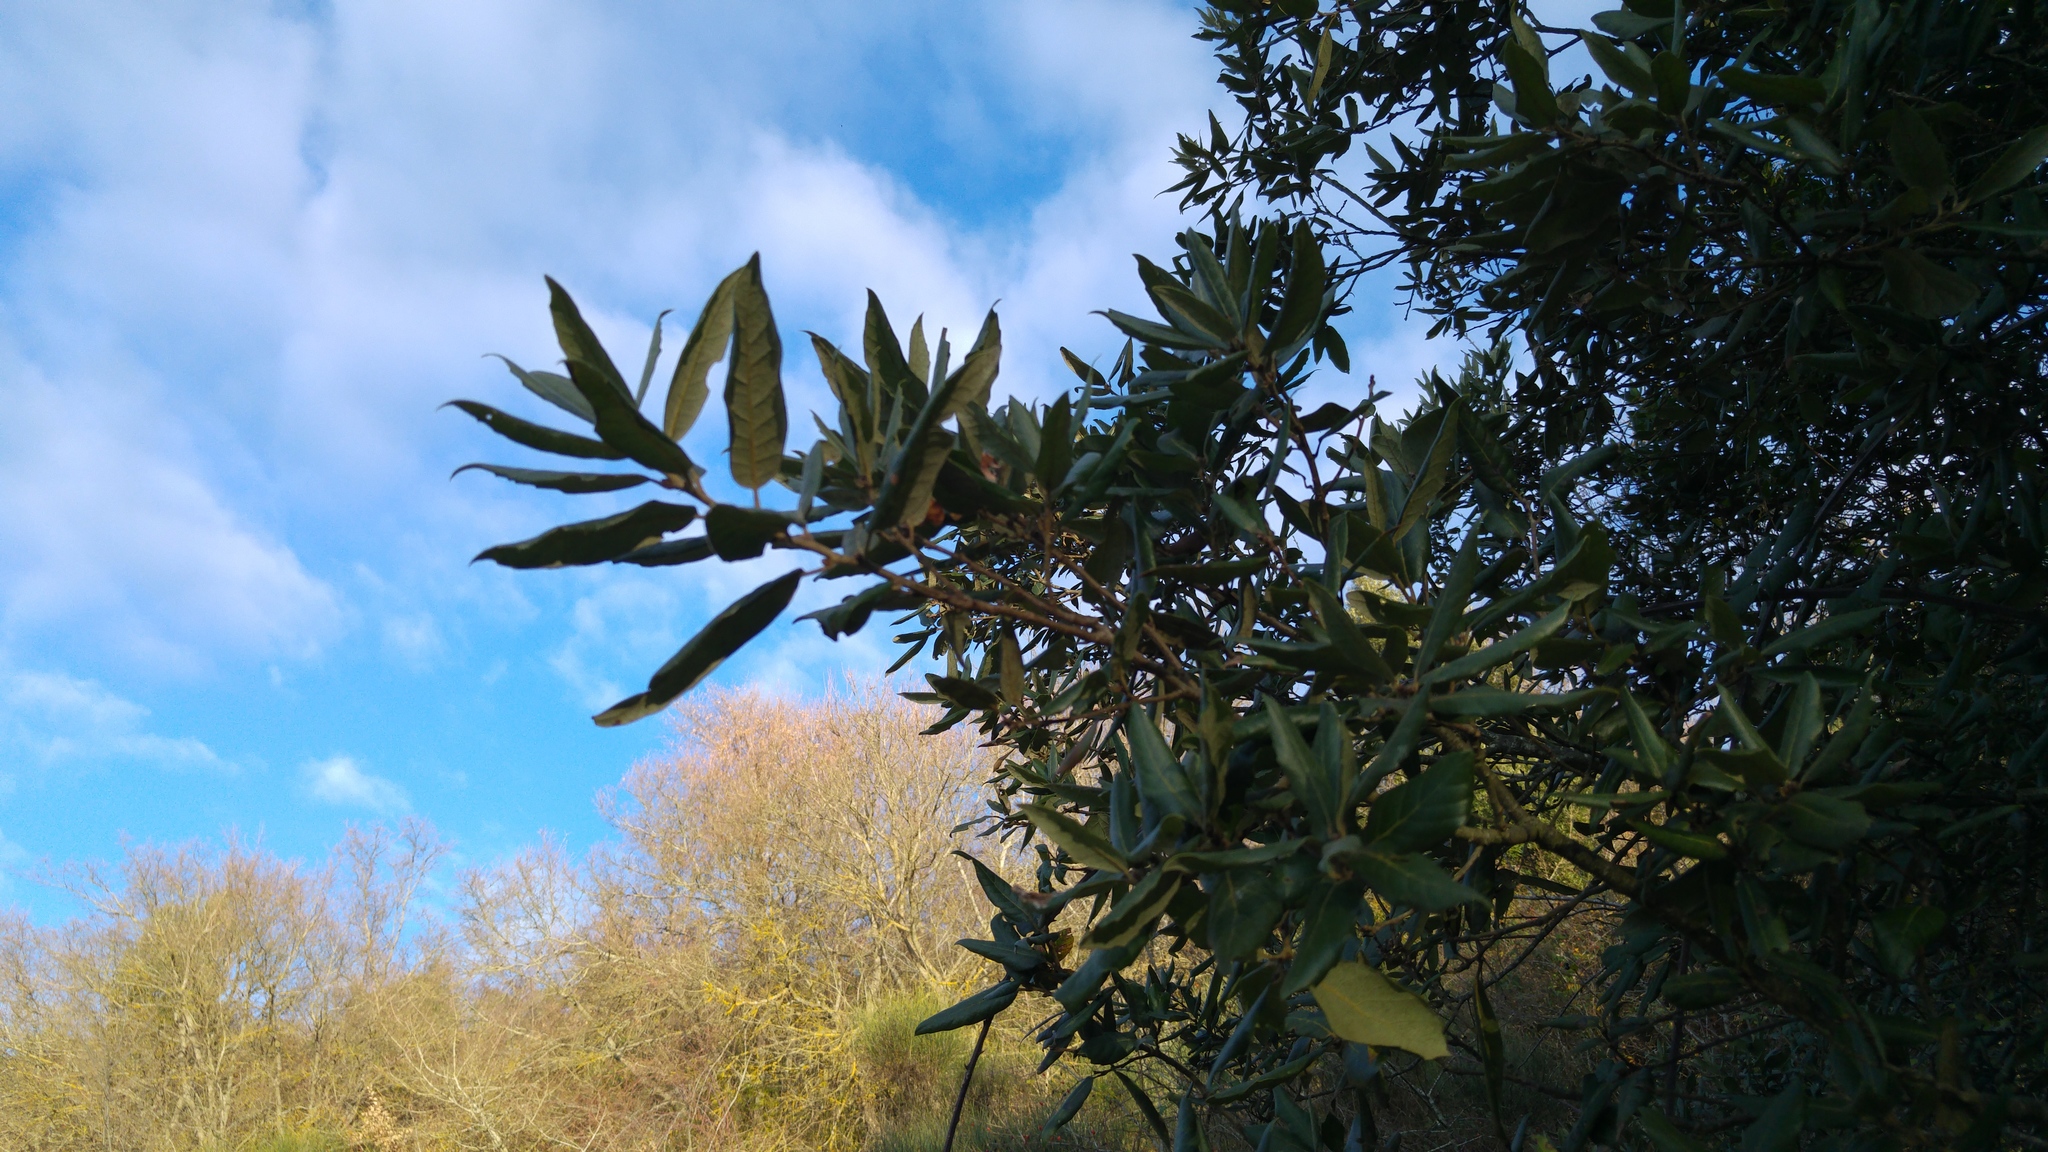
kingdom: Plantae
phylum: Tracheophyta
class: Magnoliopsida
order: Fagales
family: Fagaceae
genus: Quercus
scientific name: Quercus ilex
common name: Evergreen oak
